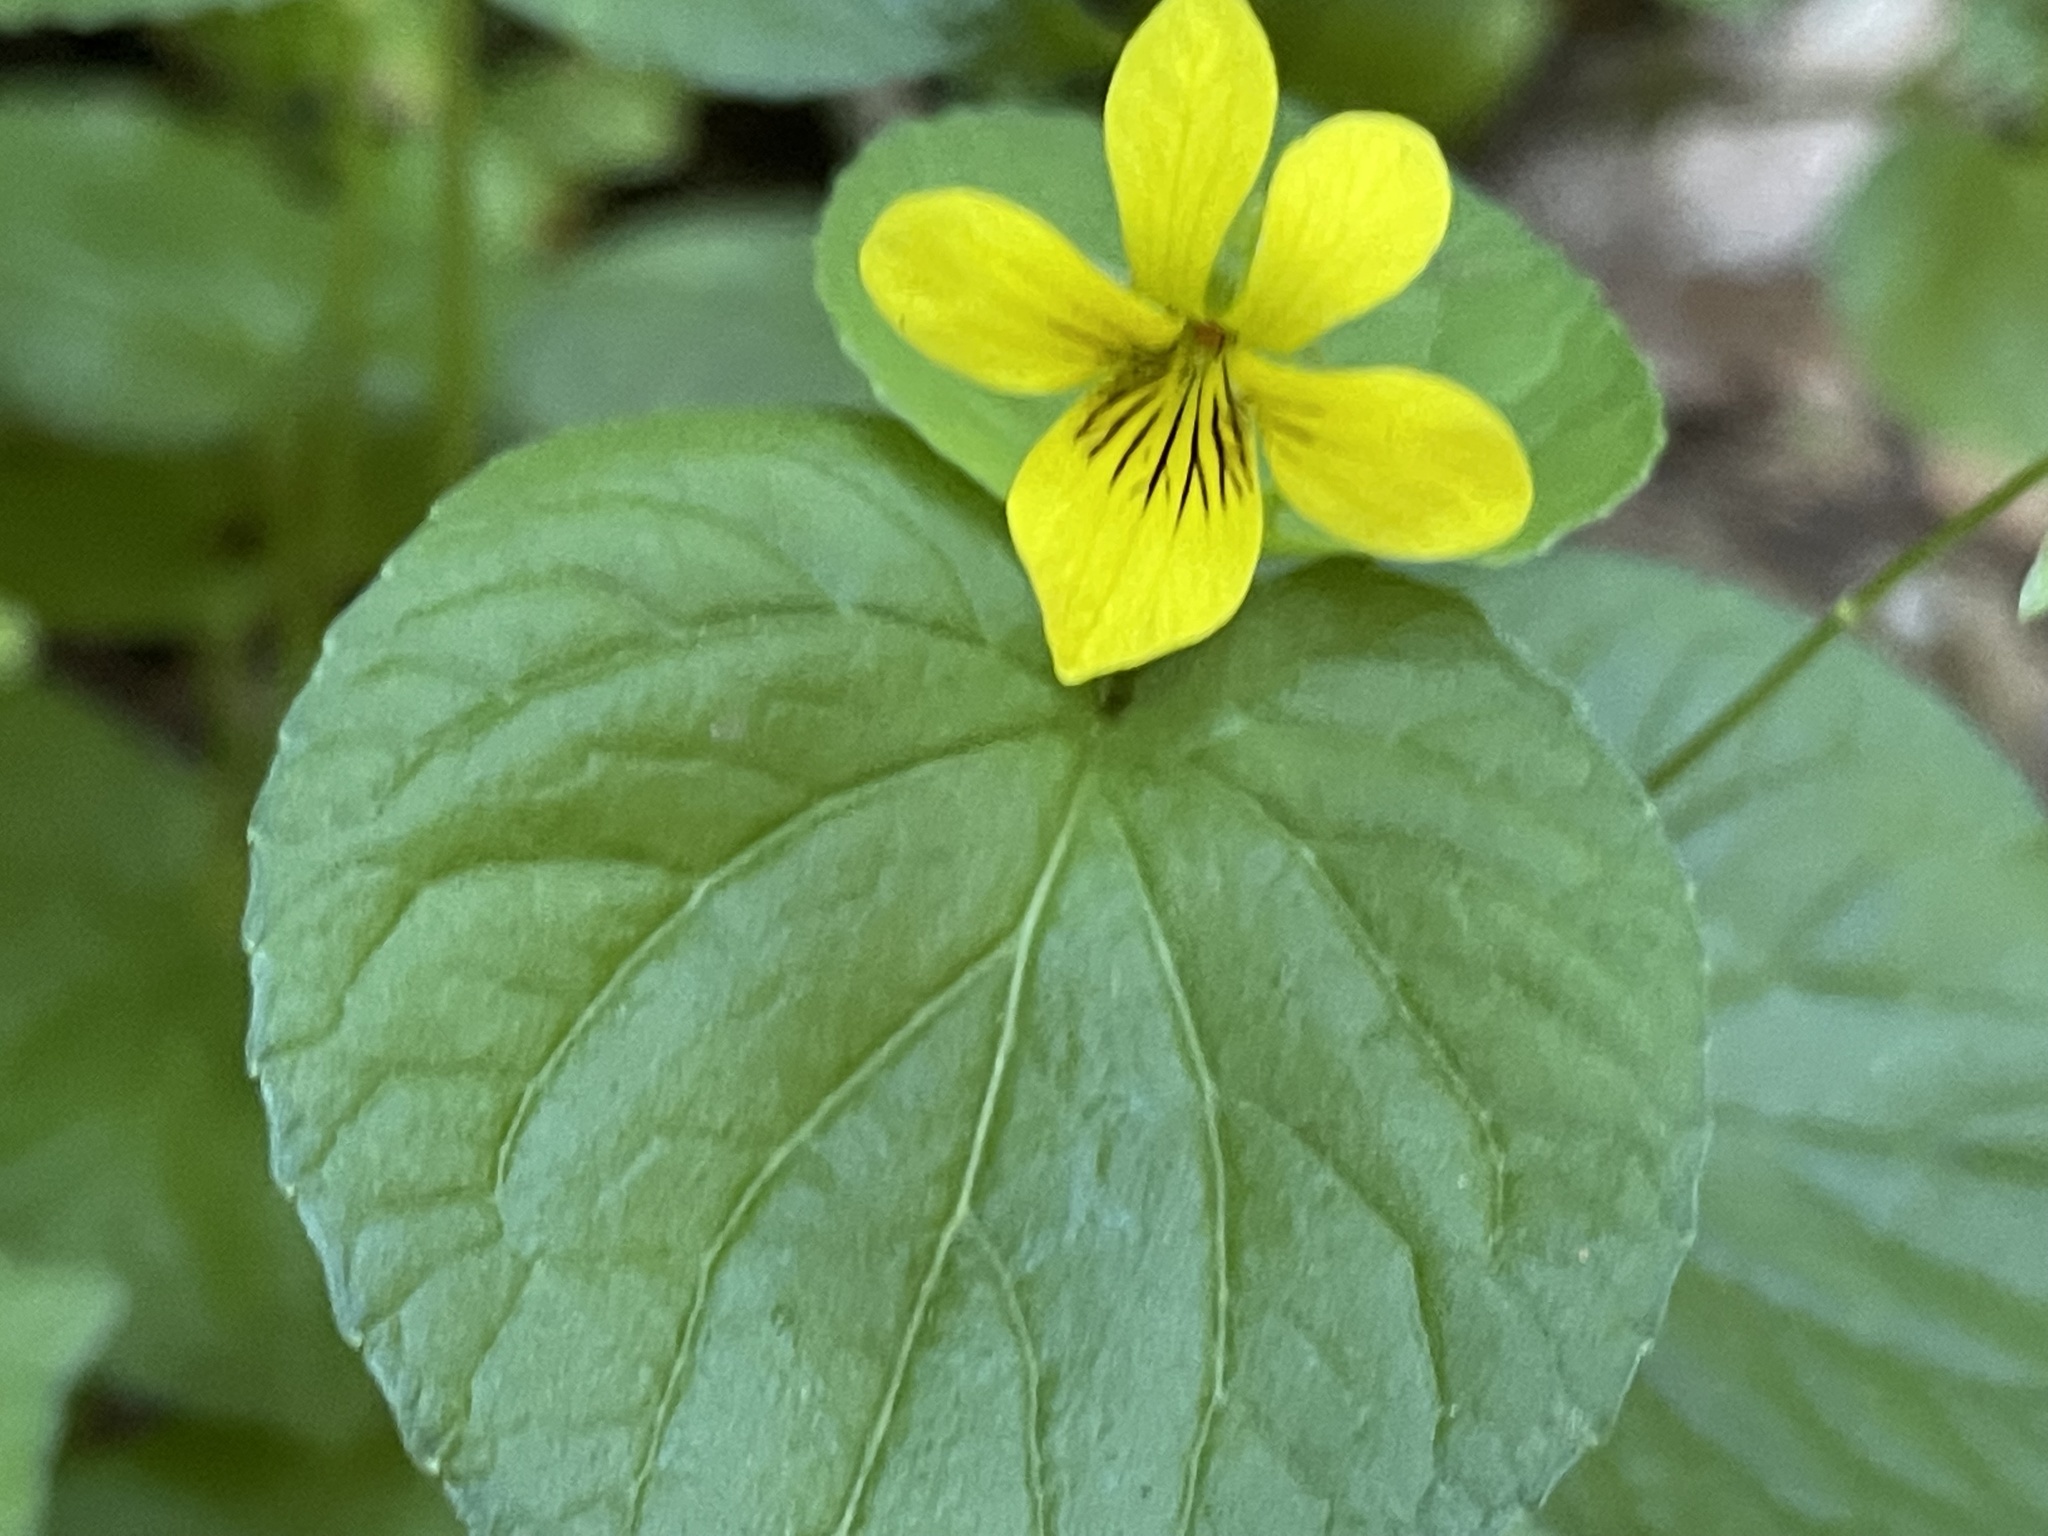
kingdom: Plantae
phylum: Tracheophyta
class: Magnoliopsida
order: Malpighiales
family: Violaceae
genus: Viola
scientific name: Viola glabella
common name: Stream violet
